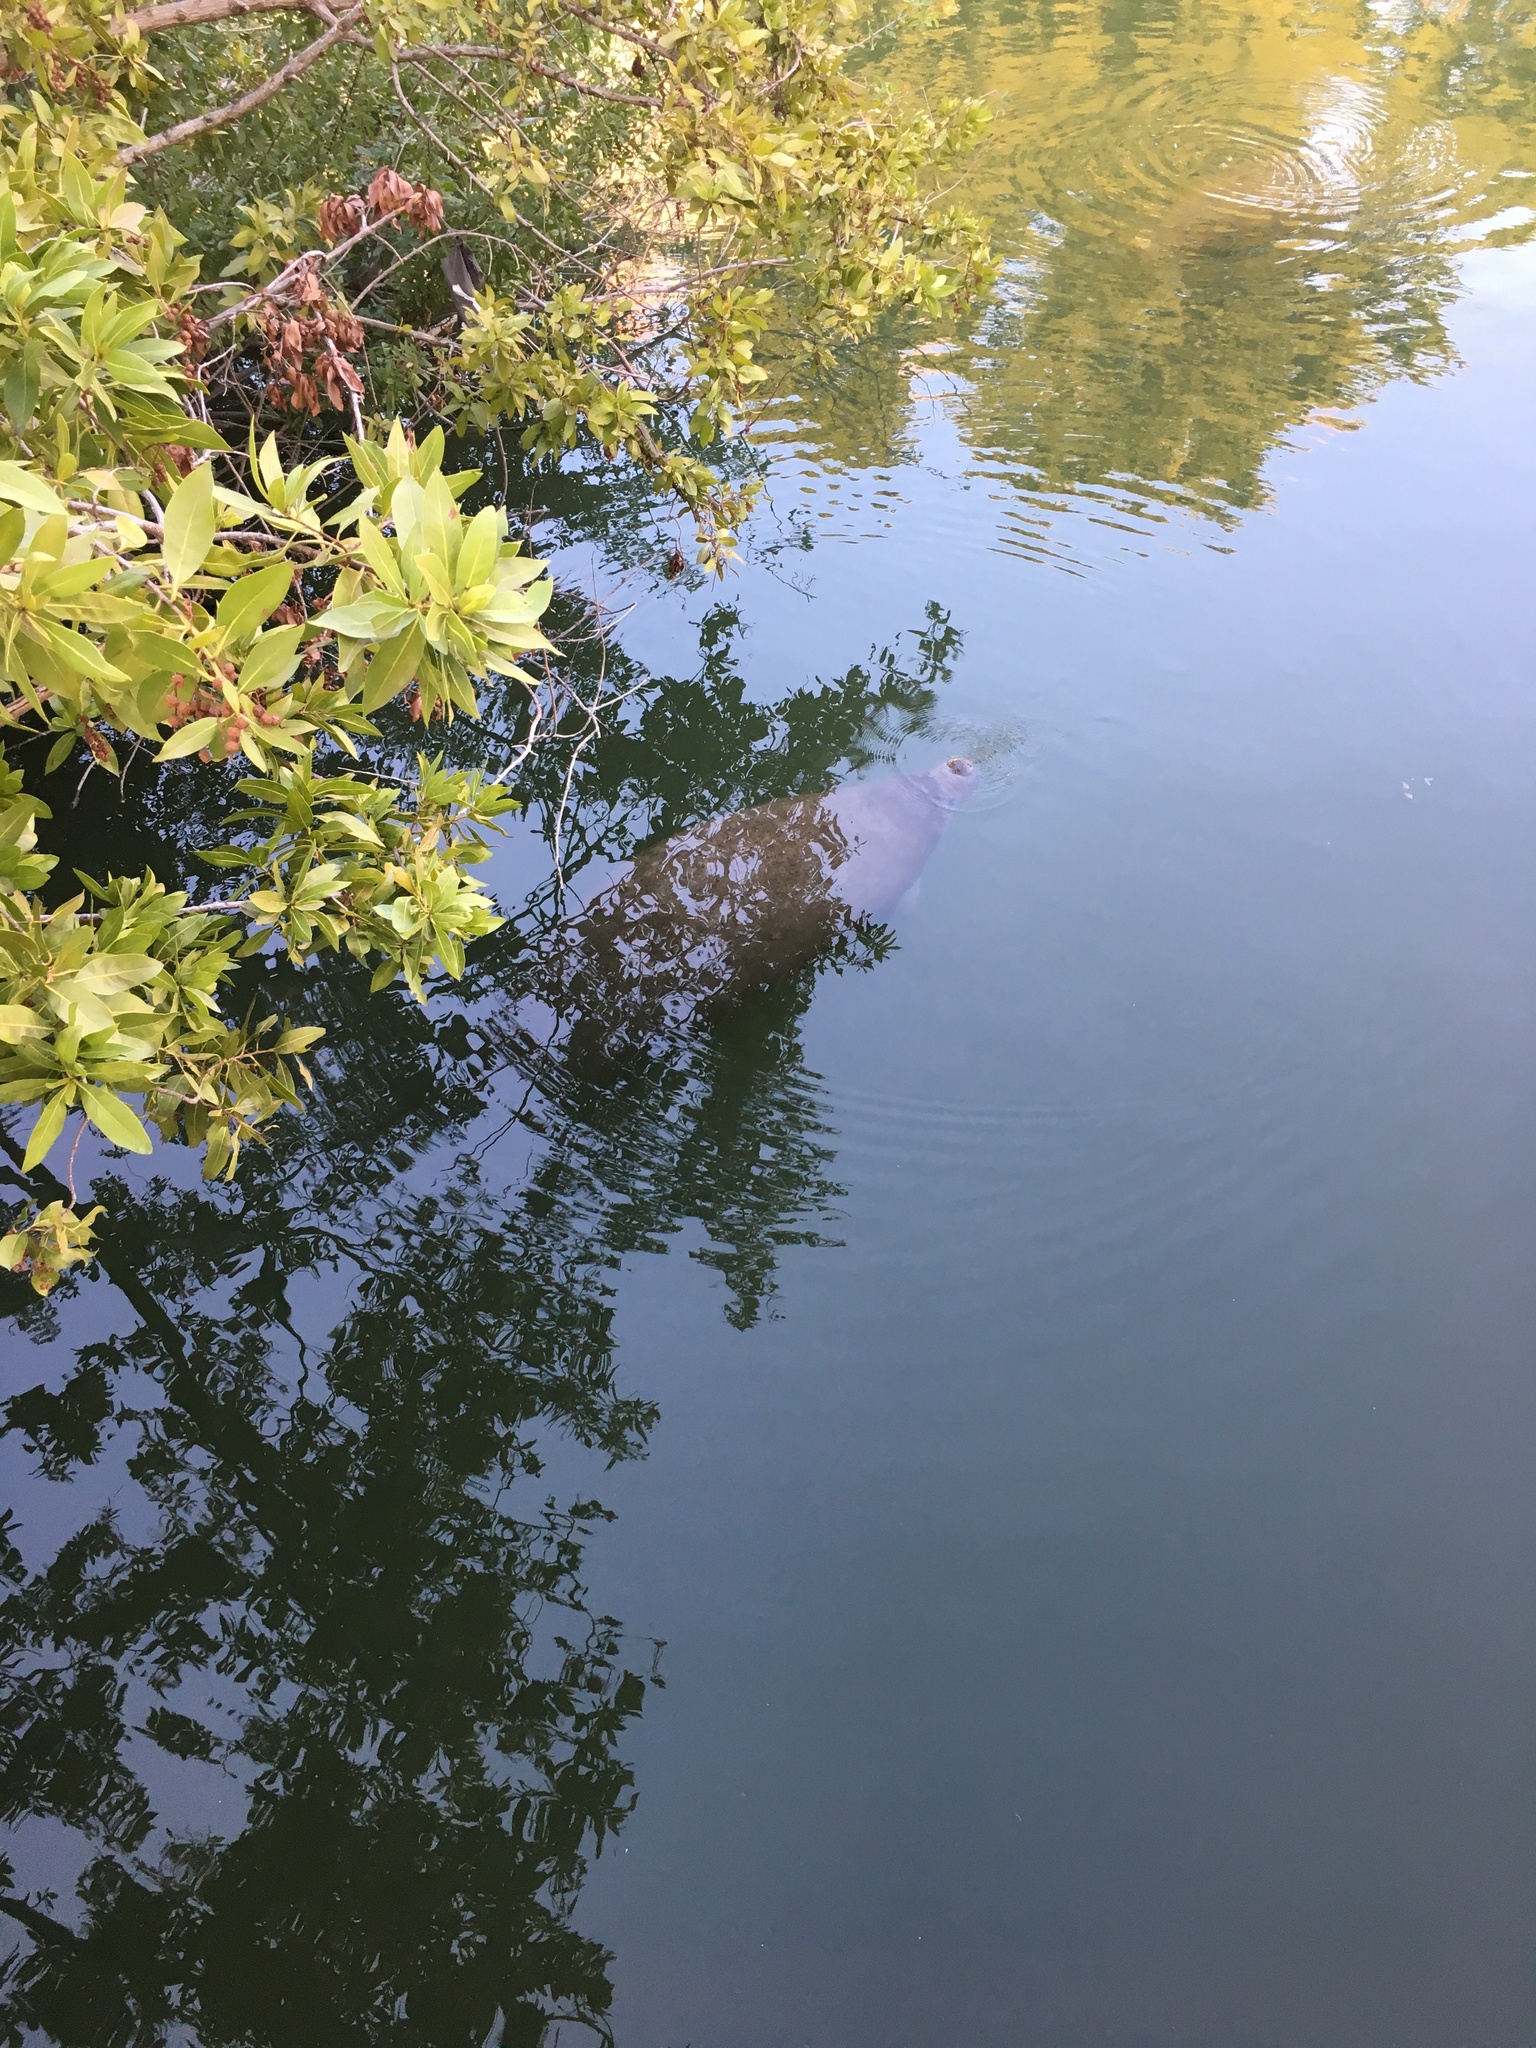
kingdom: Animalia
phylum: Chordata
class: Mammalia
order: Sirenia
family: Trichechidae
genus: Trichechus
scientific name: Trichechus manatus
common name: West indian manatee
